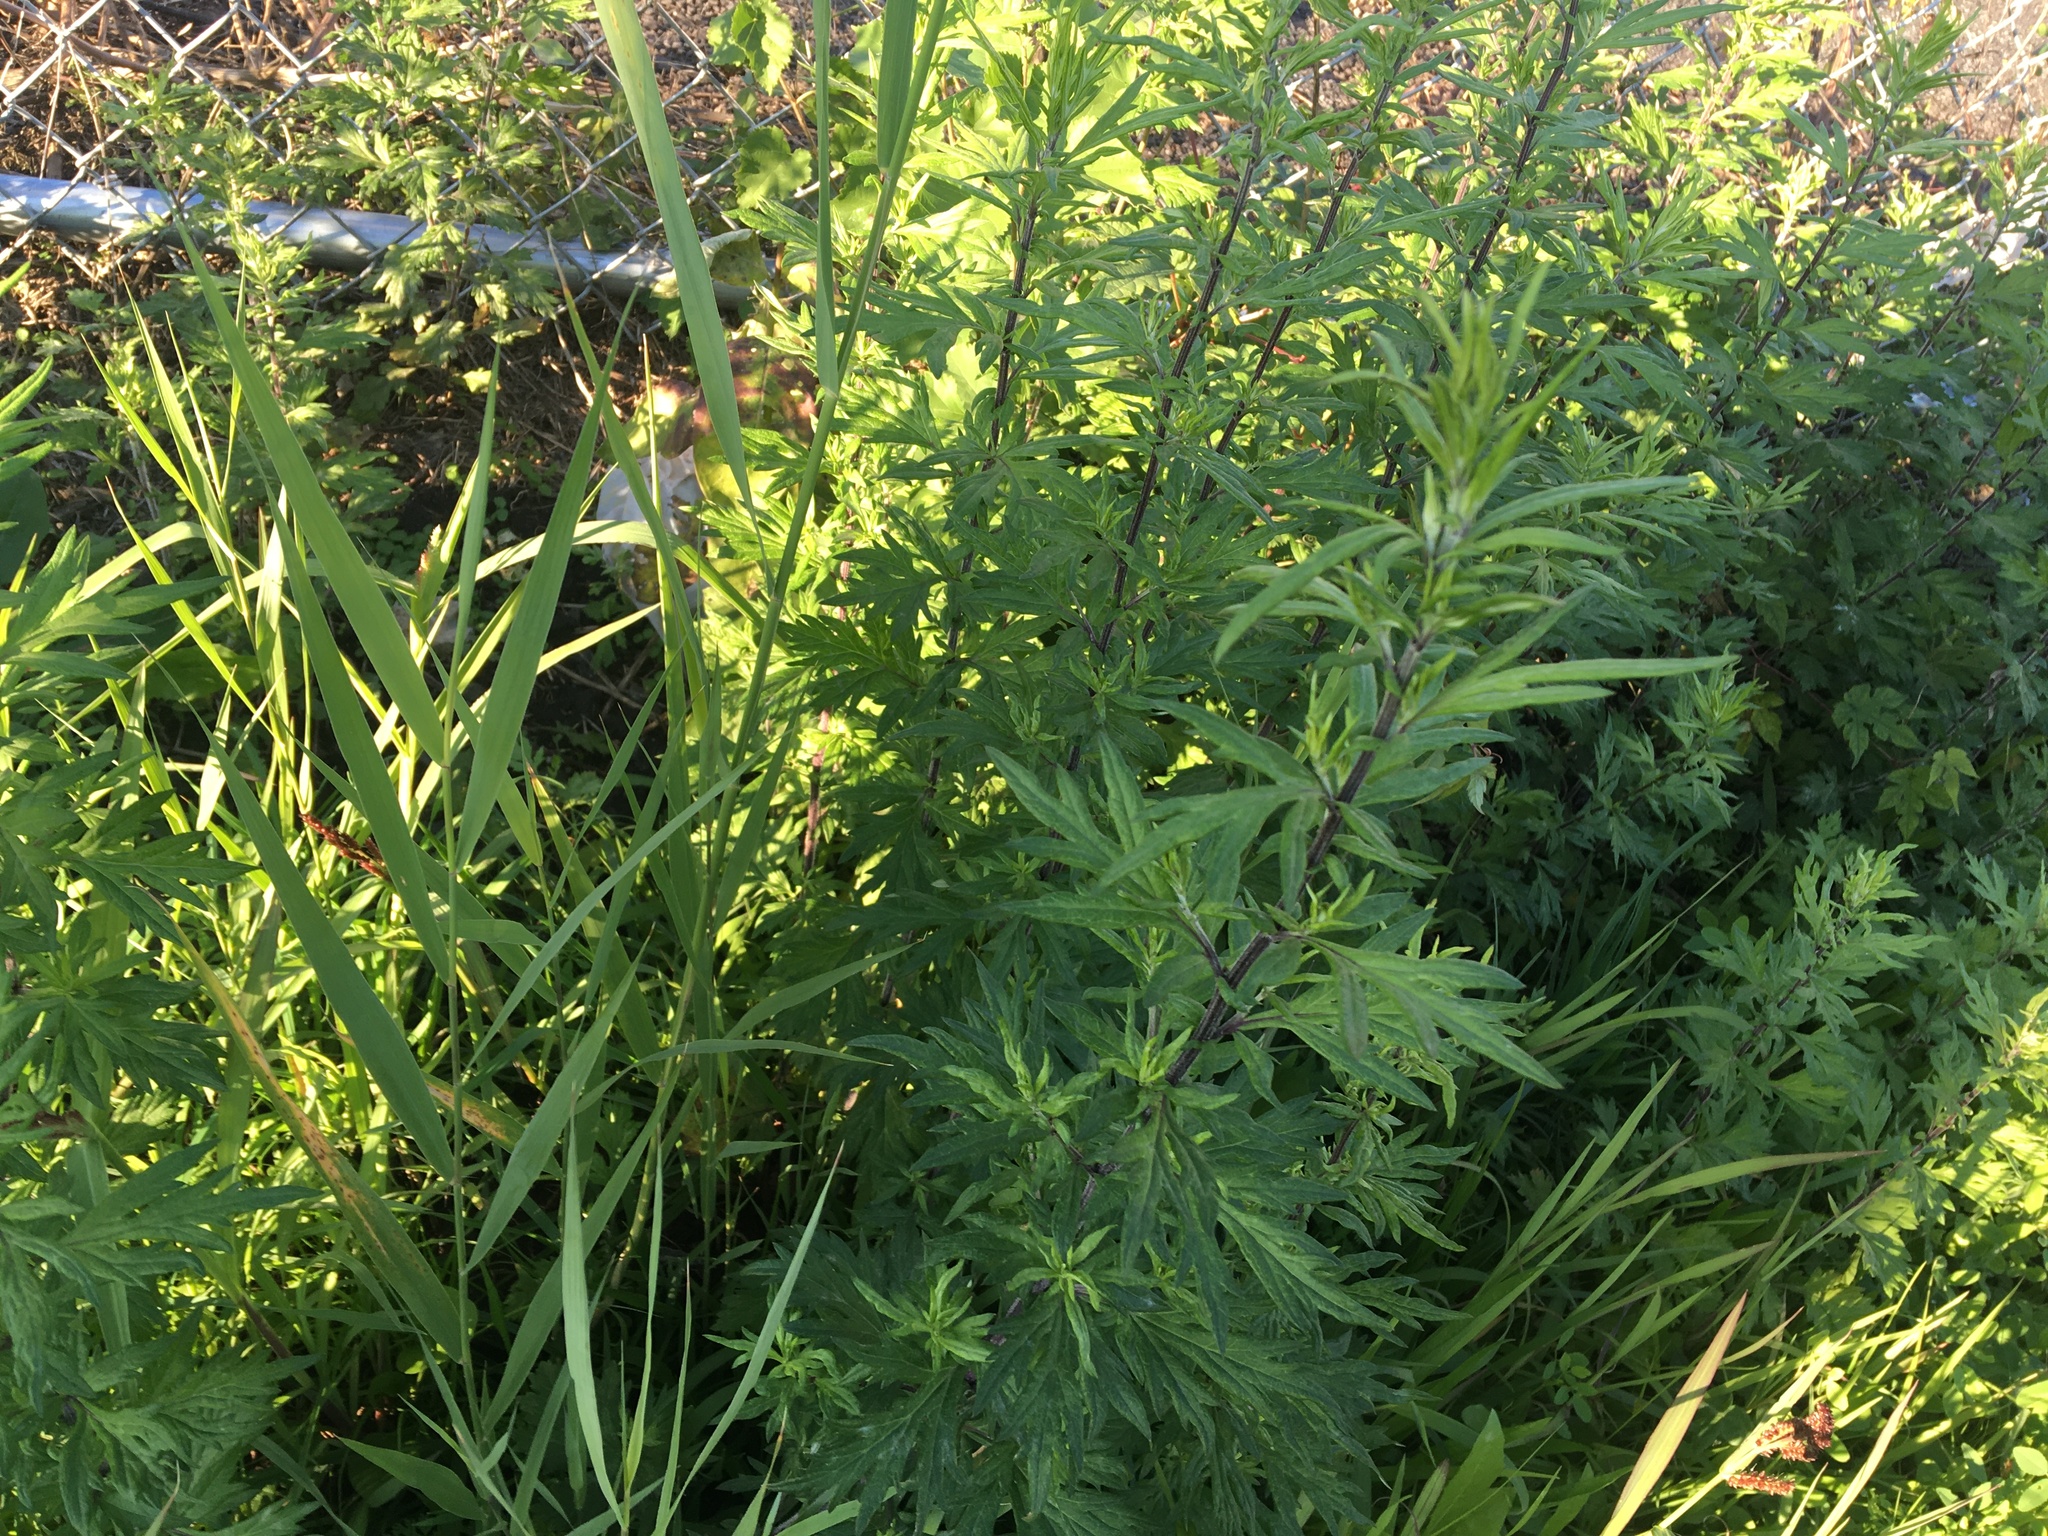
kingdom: Plantae
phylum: Tracheophyta
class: Magnoliopsida
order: Asterales
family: Asteraceae
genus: Artemisia
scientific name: Artemisia vulgaris
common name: Mugwort
